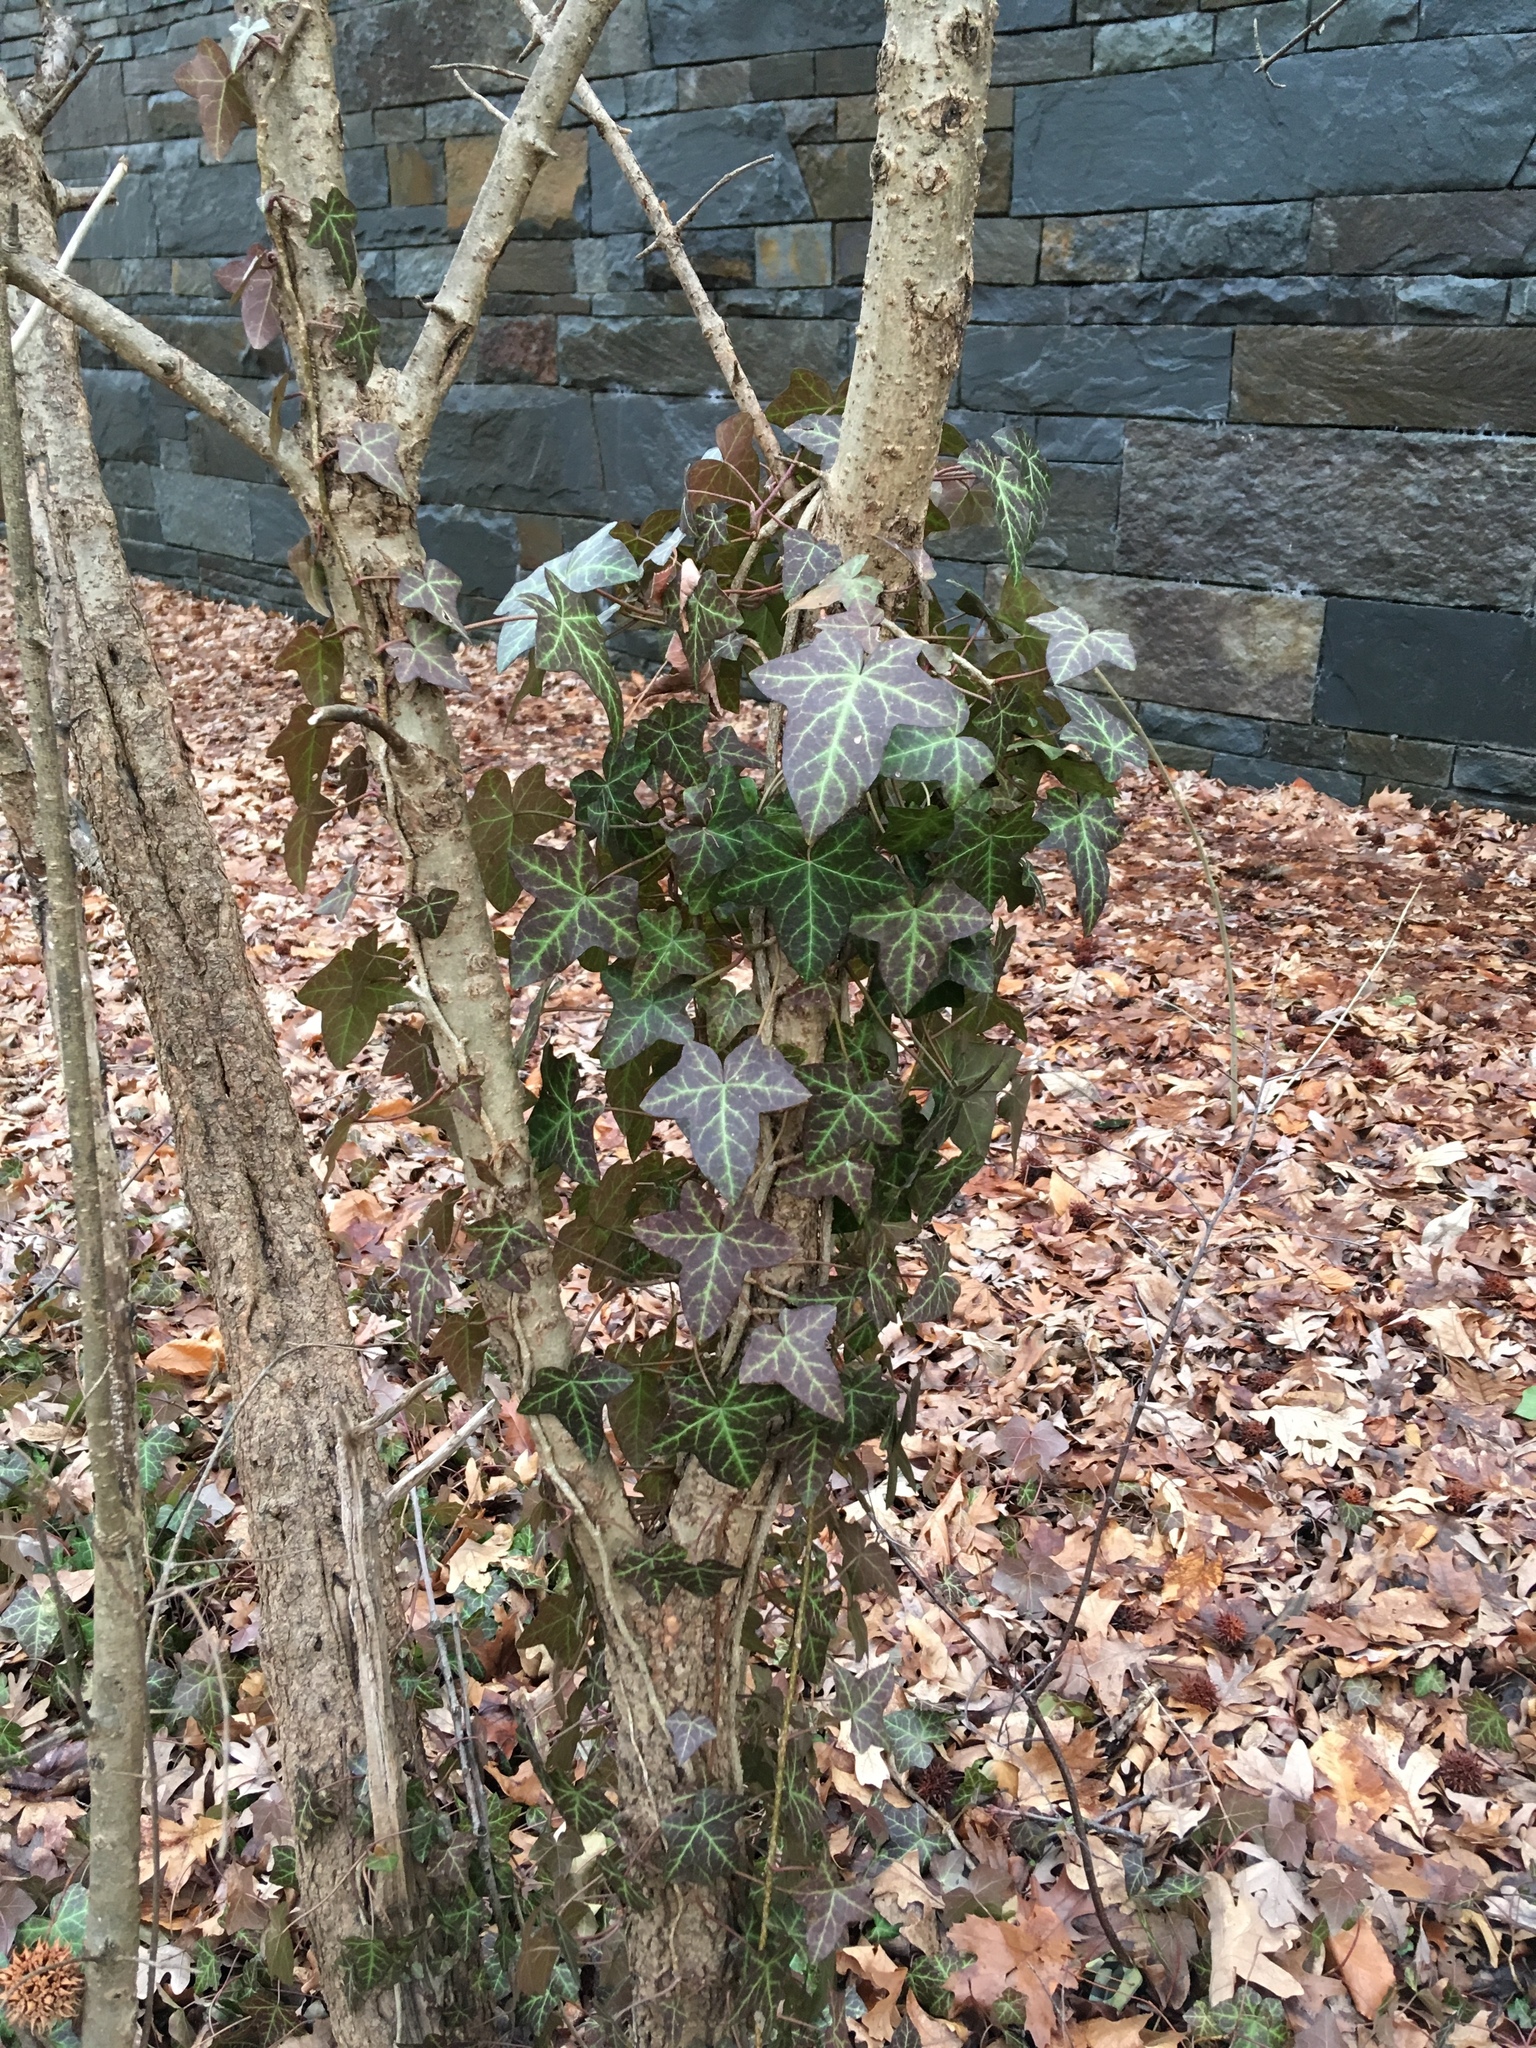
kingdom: Plantae
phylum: Tracheophyta
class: Magnoliopsida
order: Apiales
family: Araliaceae
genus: Hedera
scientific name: Hedera helix
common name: Ivy
